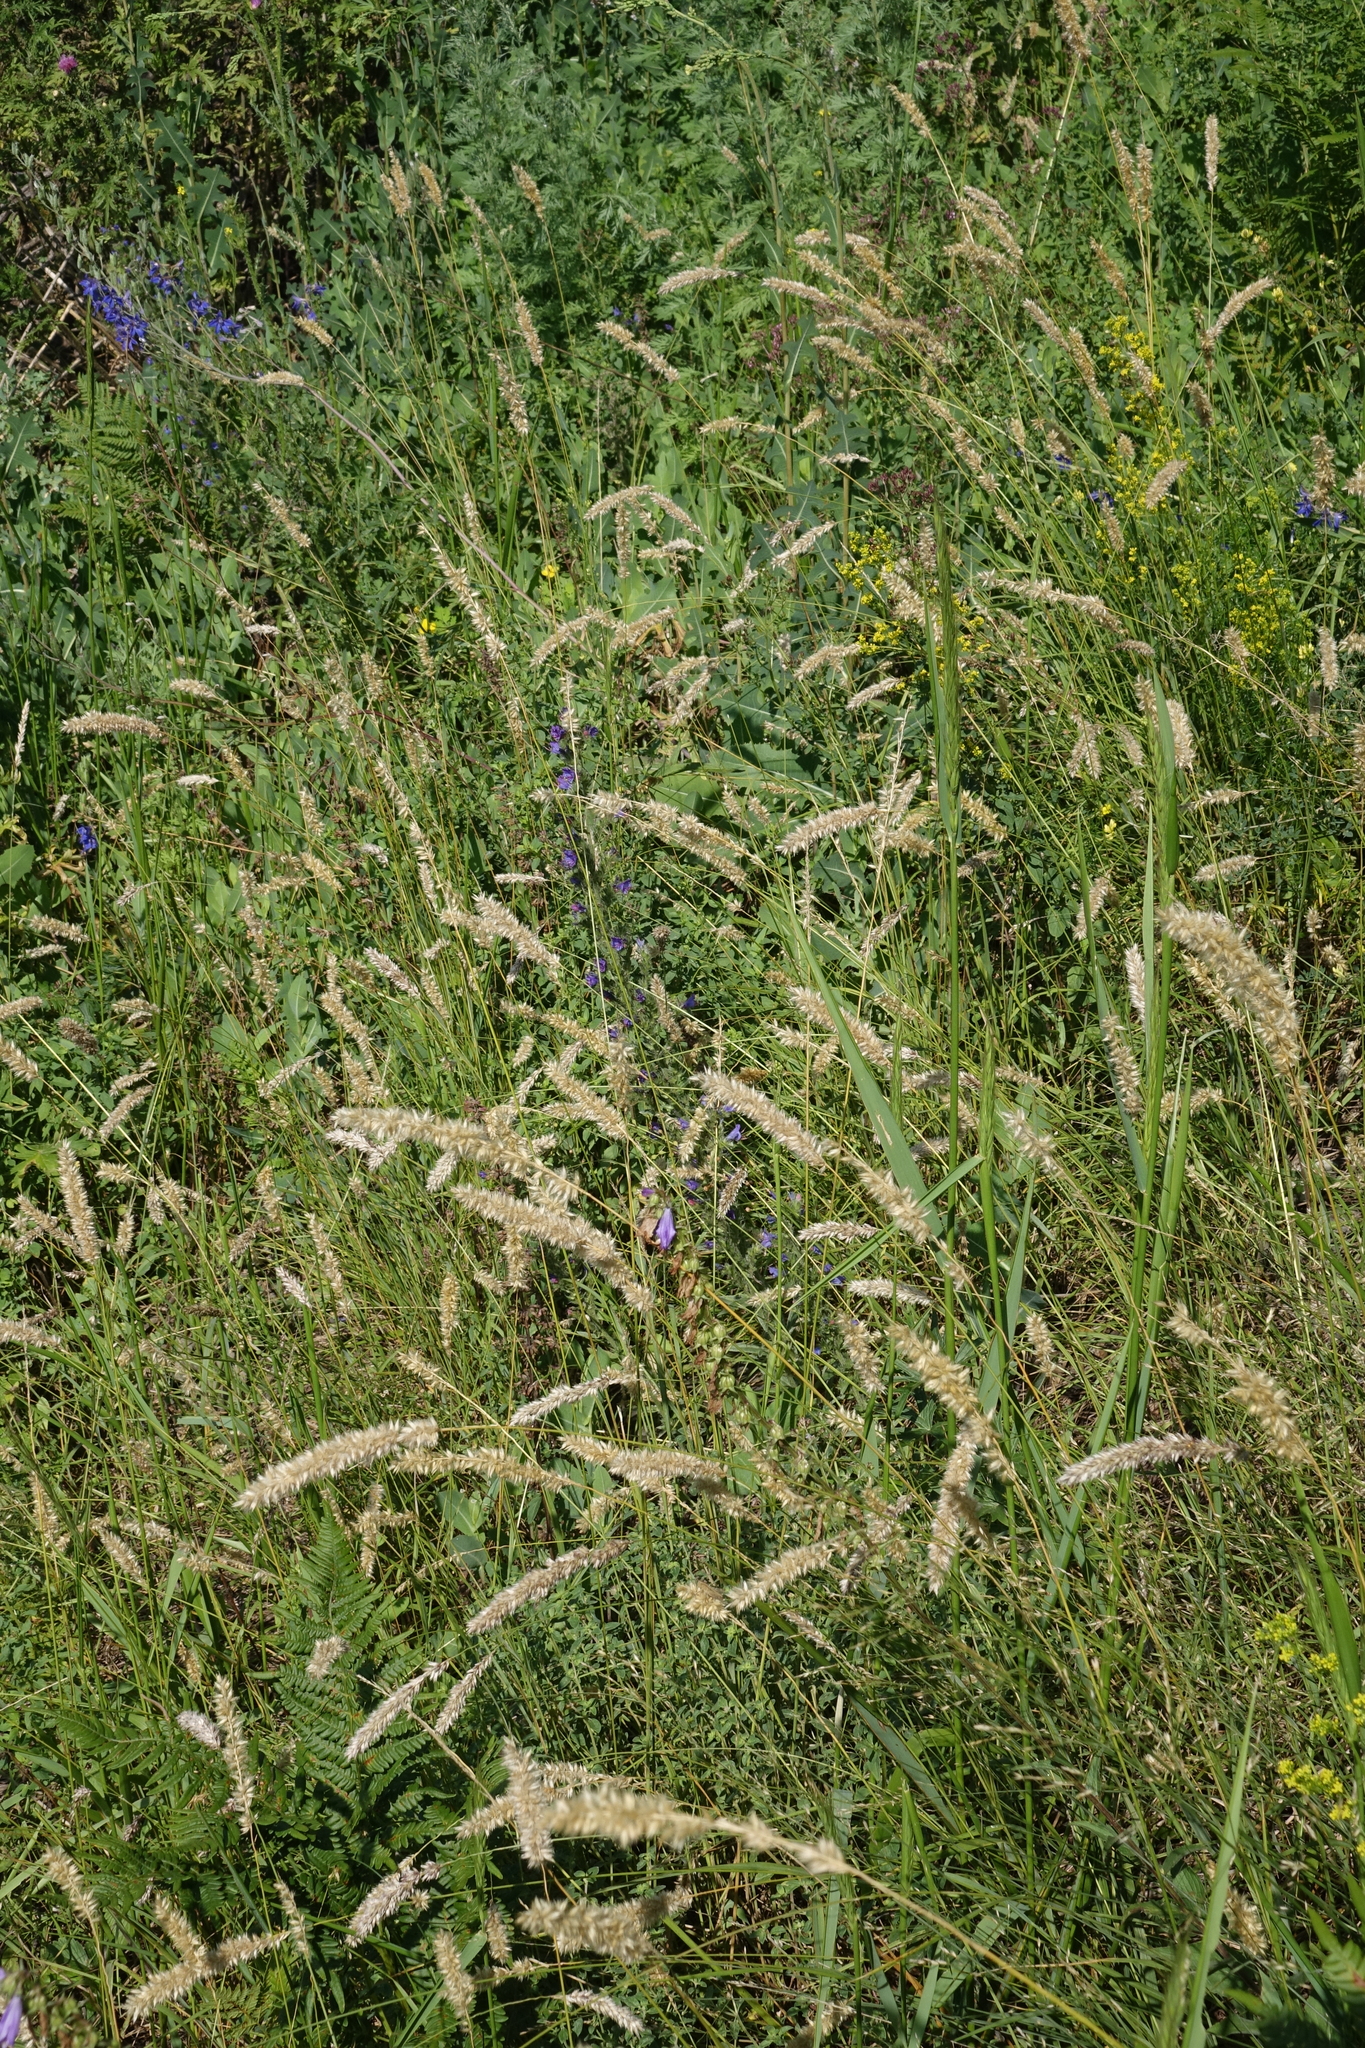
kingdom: Plantae
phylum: Tracheophyta
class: Liliopsida
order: Poales
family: Poaceae
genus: Melica
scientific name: Melica altissima
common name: Siberian melicgrass
